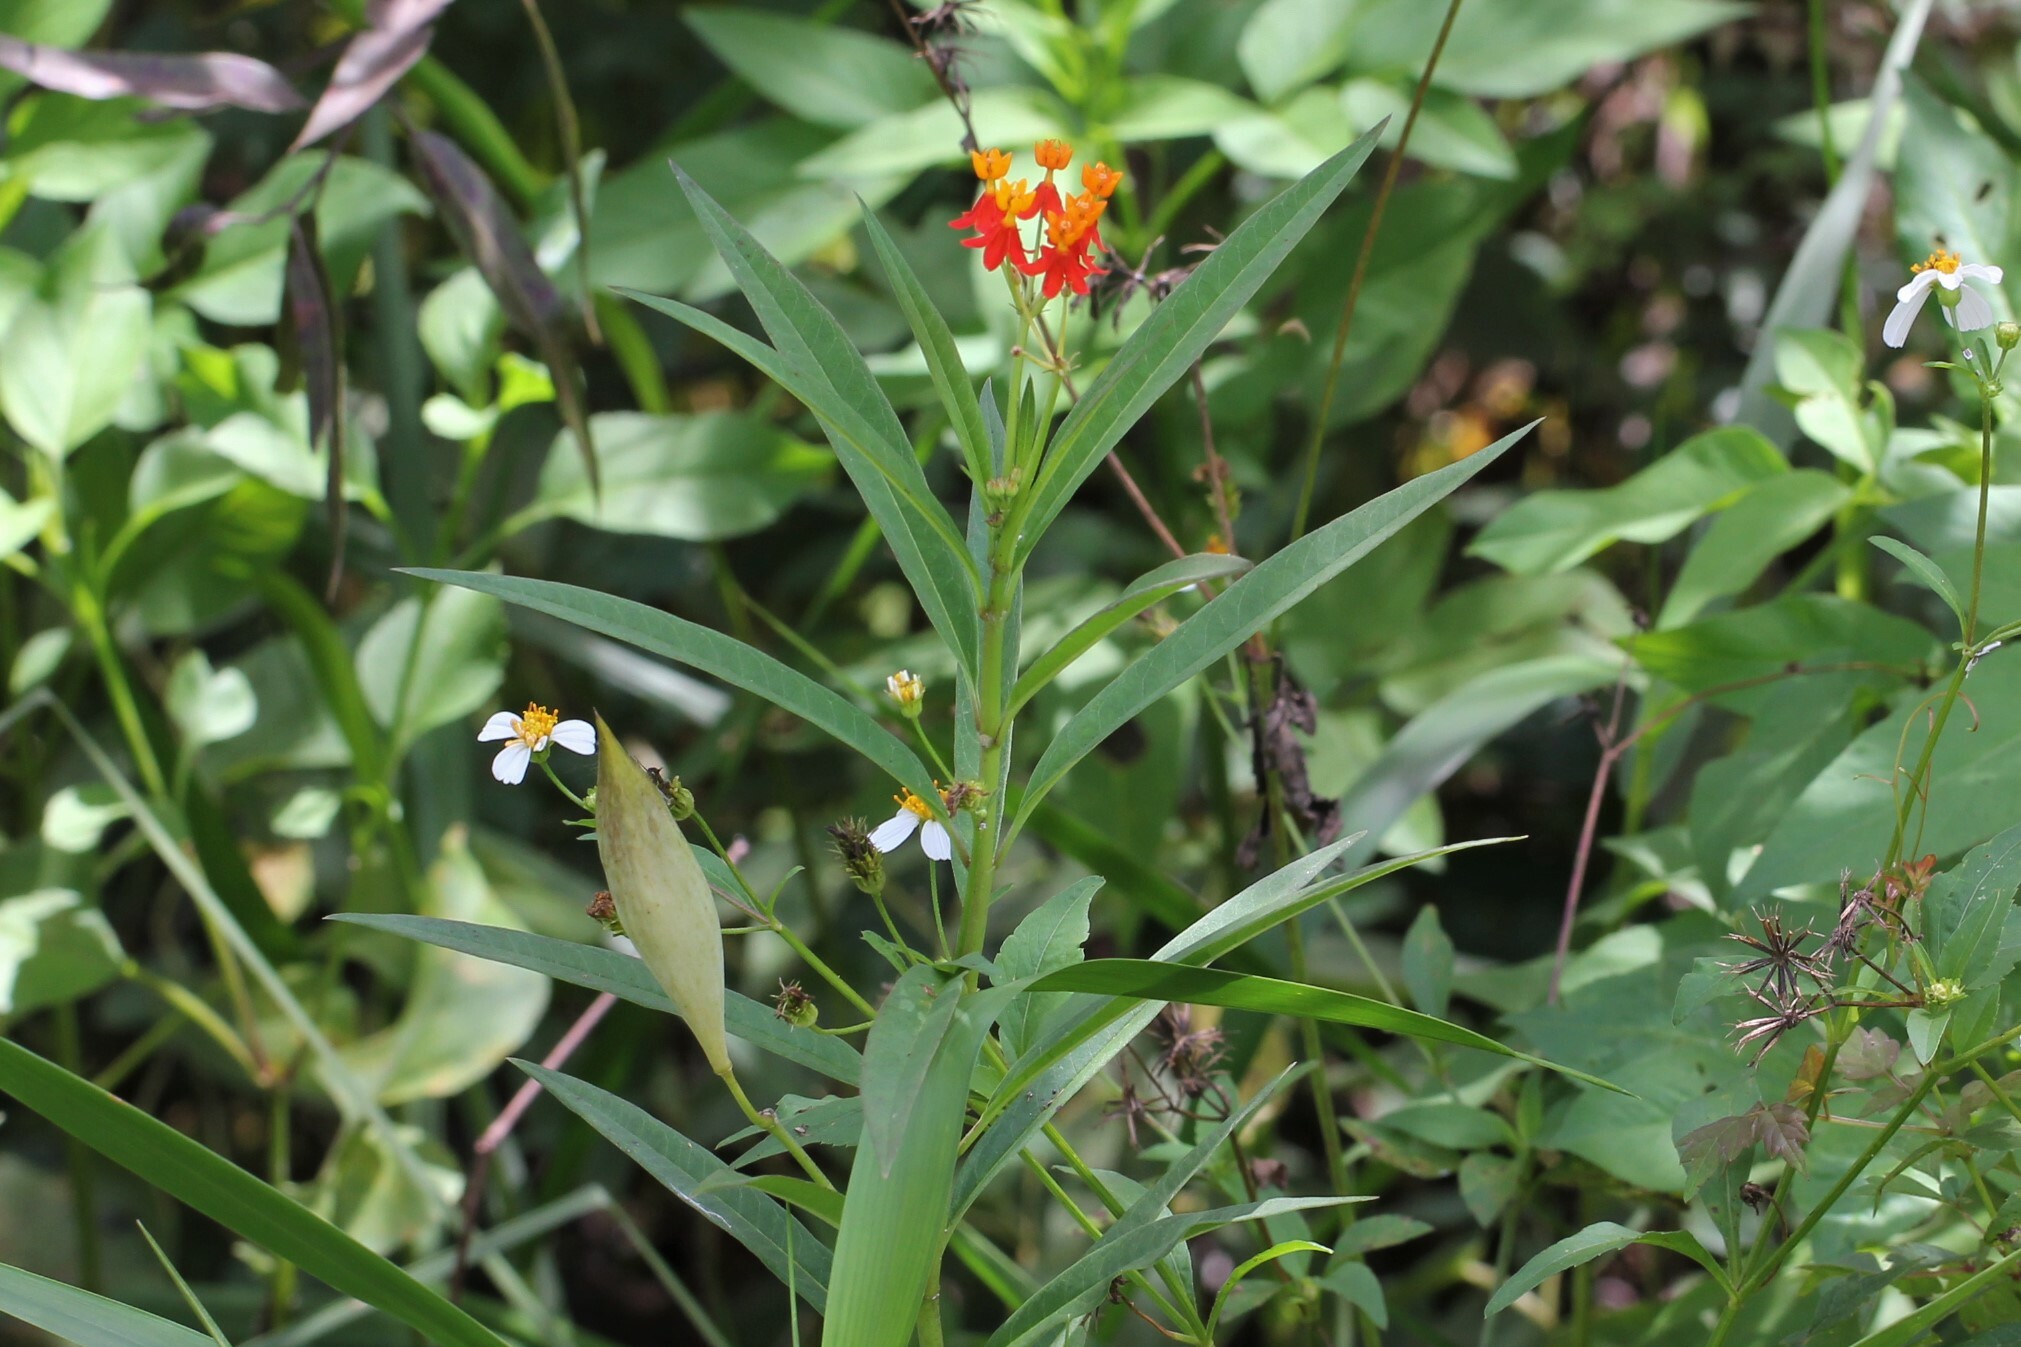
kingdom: Plantae
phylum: Tracheophyta
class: Magnoliopsida
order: Gentianales
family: Apocynaceae
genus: Asclepias
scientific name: Asclepias curassavica
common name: Bloodflower
